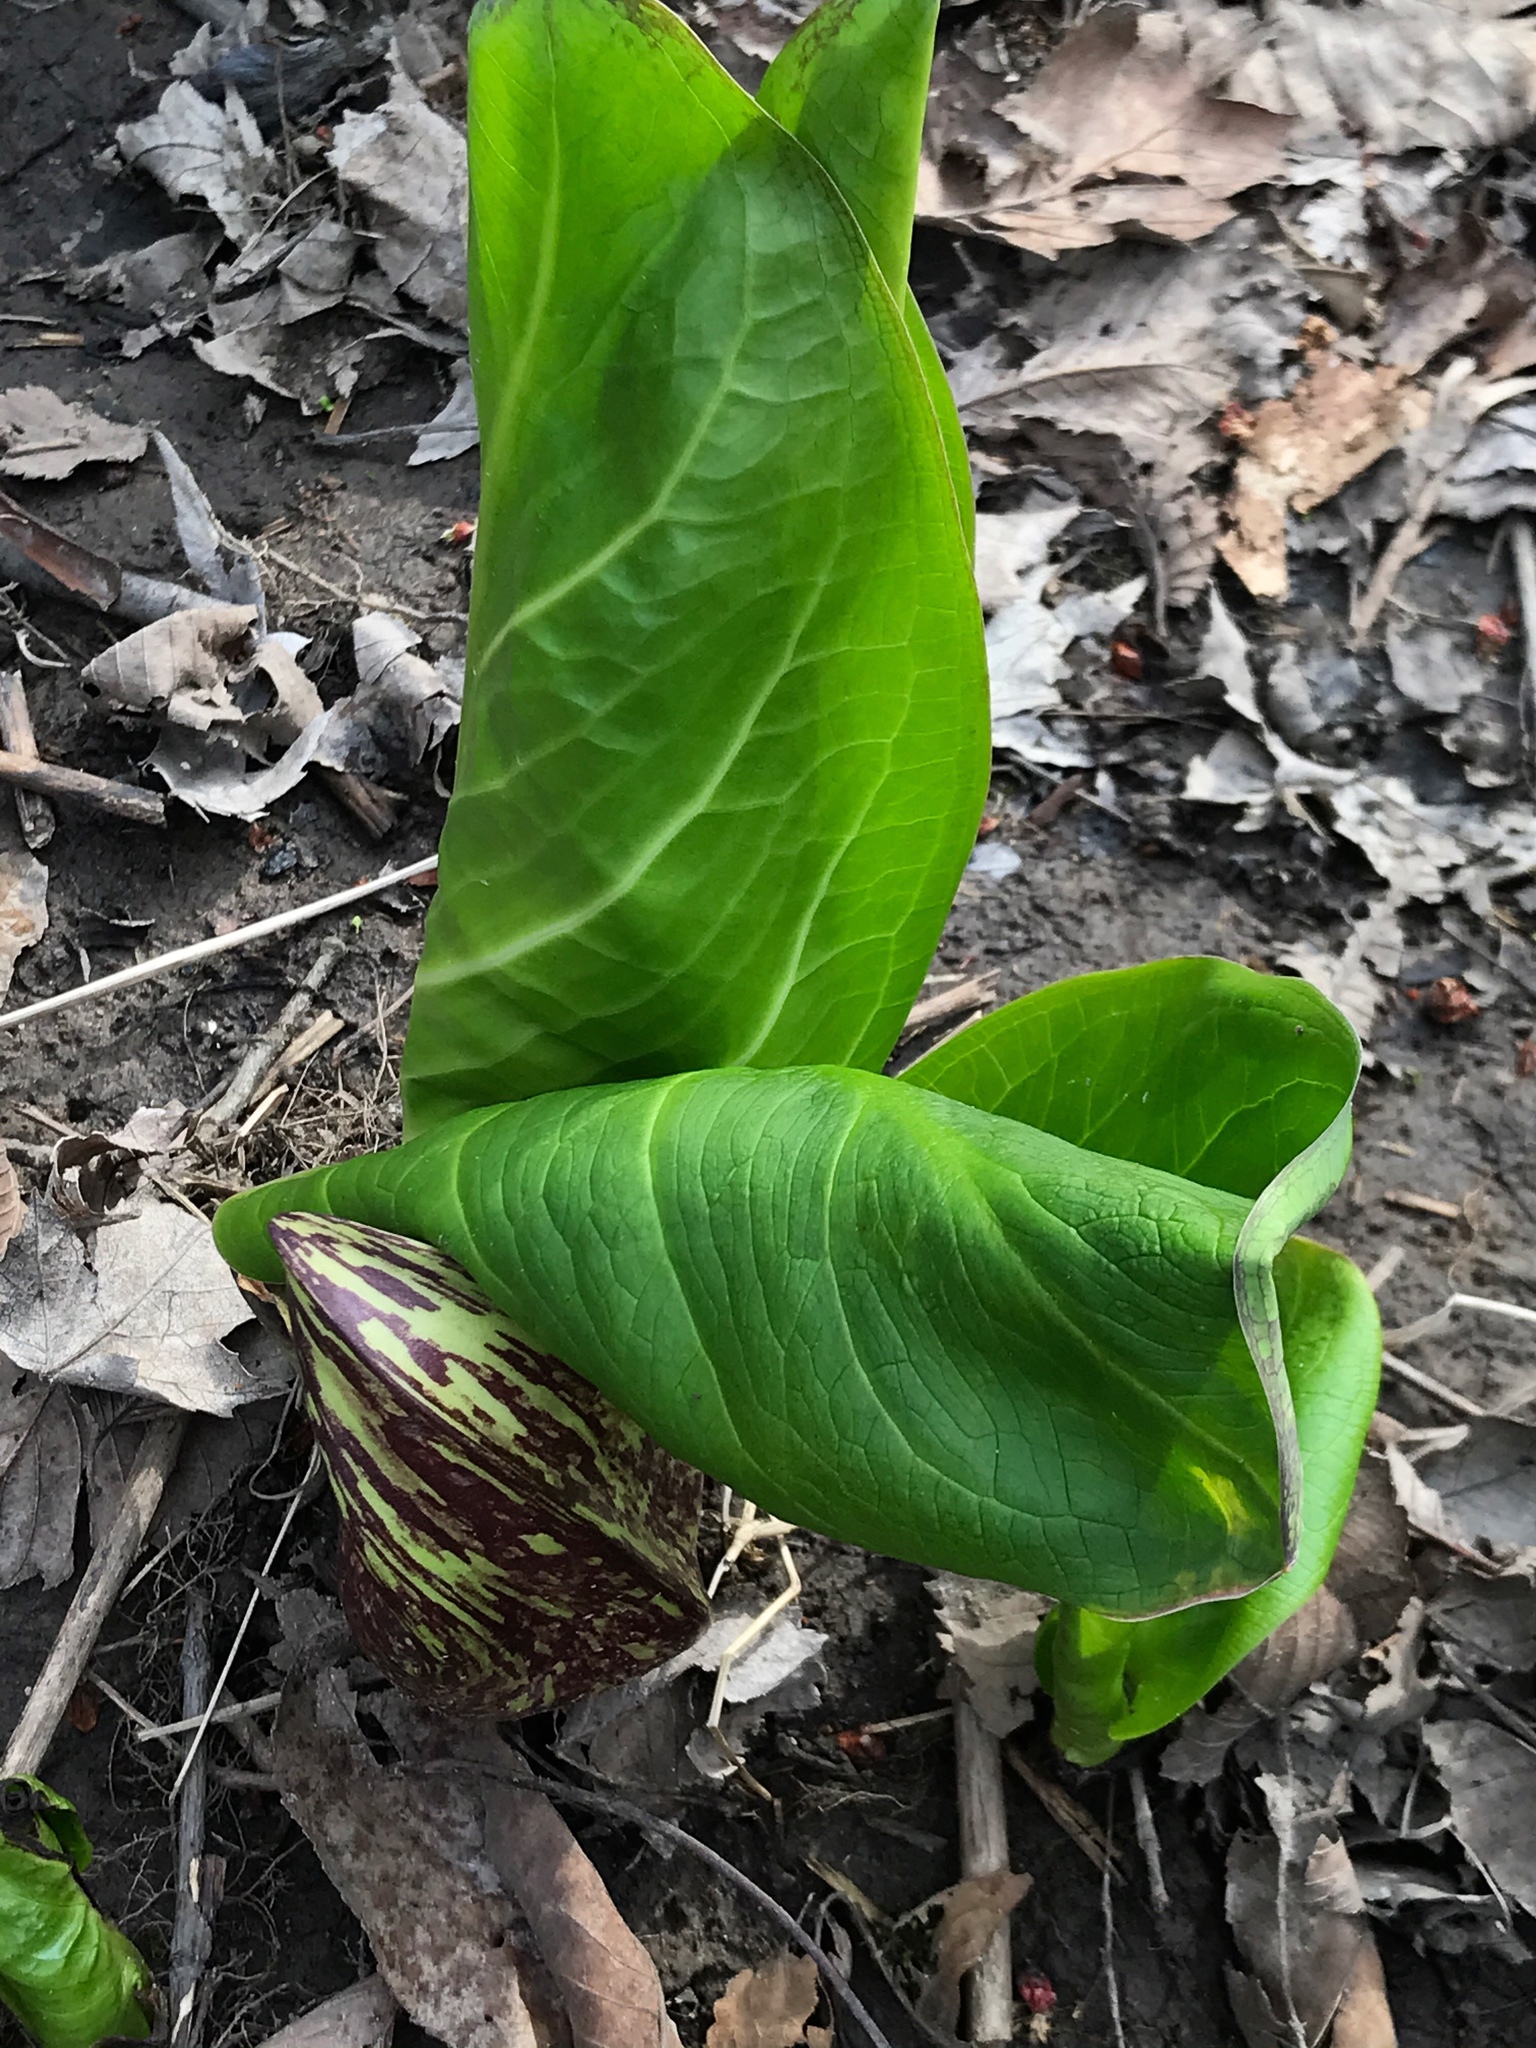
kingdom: Plantae
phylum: Tracheophyta
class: Liliopsida
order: Alismatales
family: Araceae
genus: Symplocarpus
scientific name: Symplocarpus foetidus
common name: Eastern skunk cabbage
